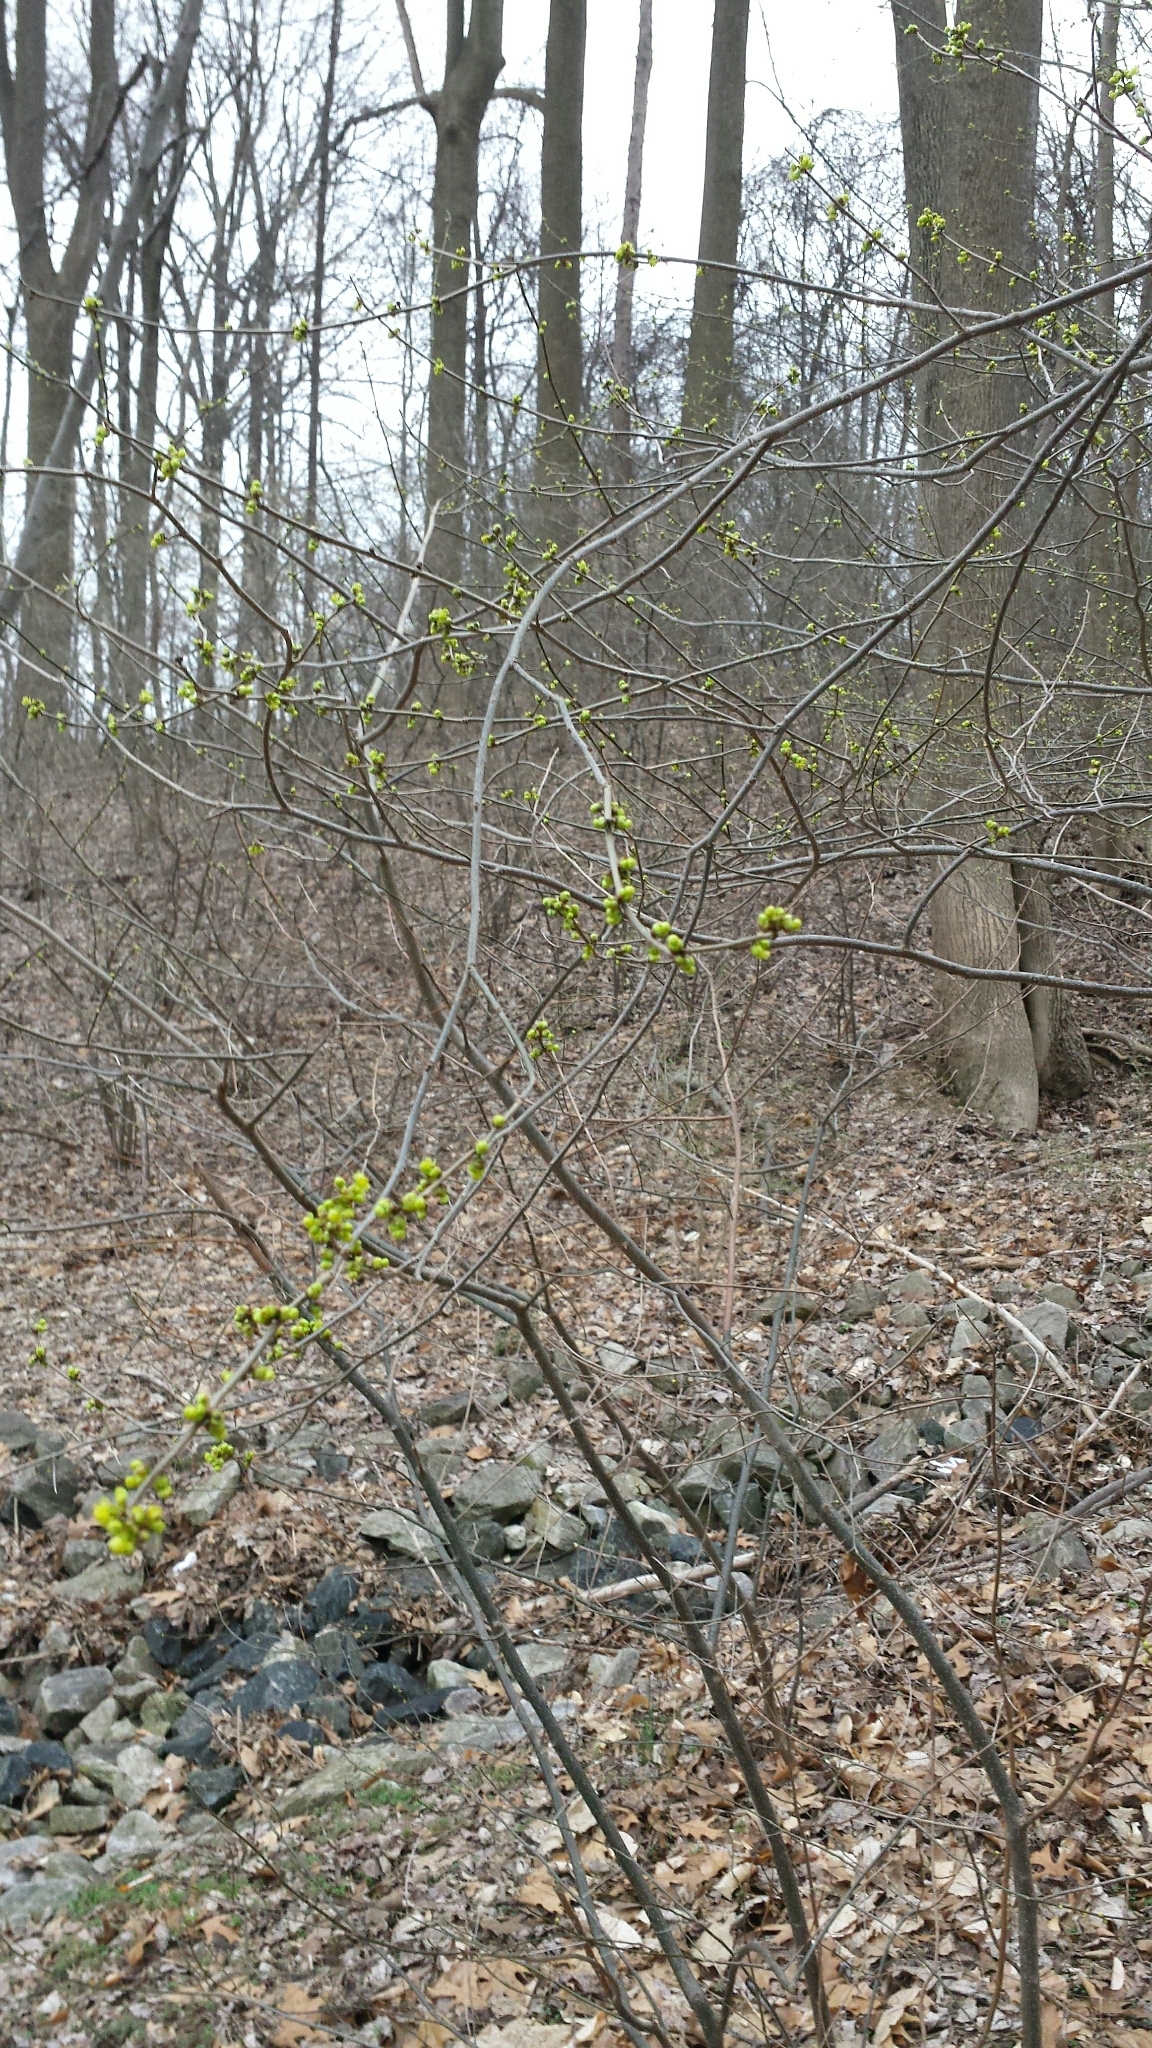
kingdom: Plantae
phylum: Tracheophyta
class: Magnoliopsida
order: Laurales
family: Lauraceae
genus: Lindera
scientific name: Lindera benzoin
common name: Spicebush
